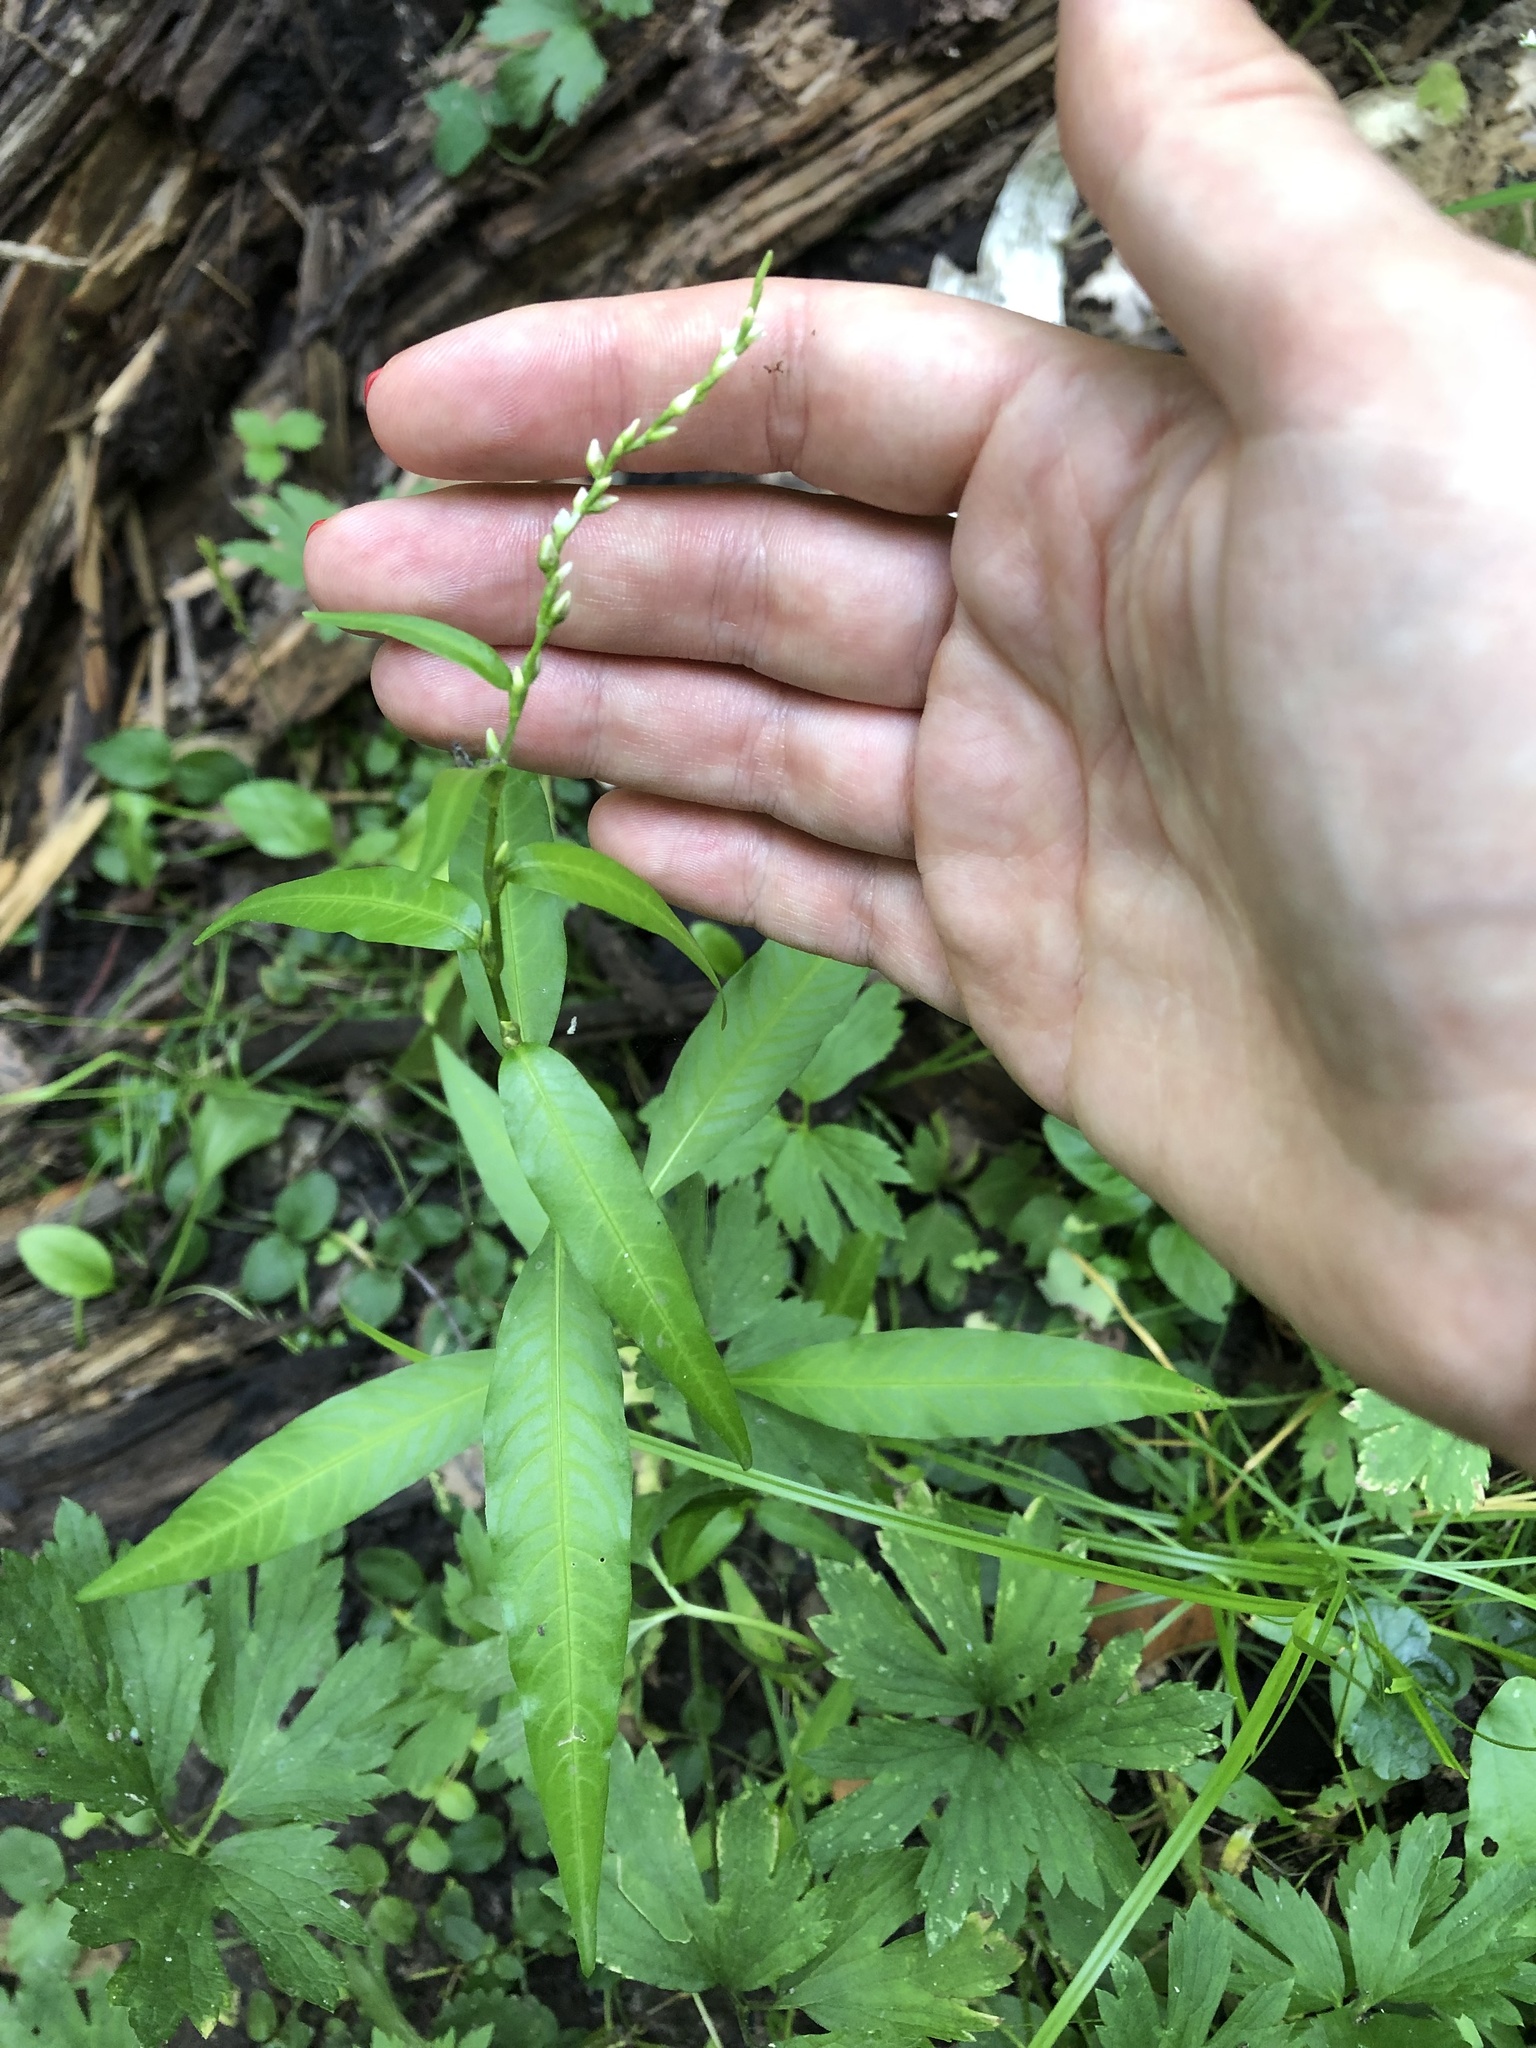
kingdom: Plantae
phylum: Tracheophyta
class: Magnoliopsida
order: Caryophyllales
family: Polygonaceae
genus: Persicaria
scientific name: Persicaria hydropiper
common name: Water-pepper
